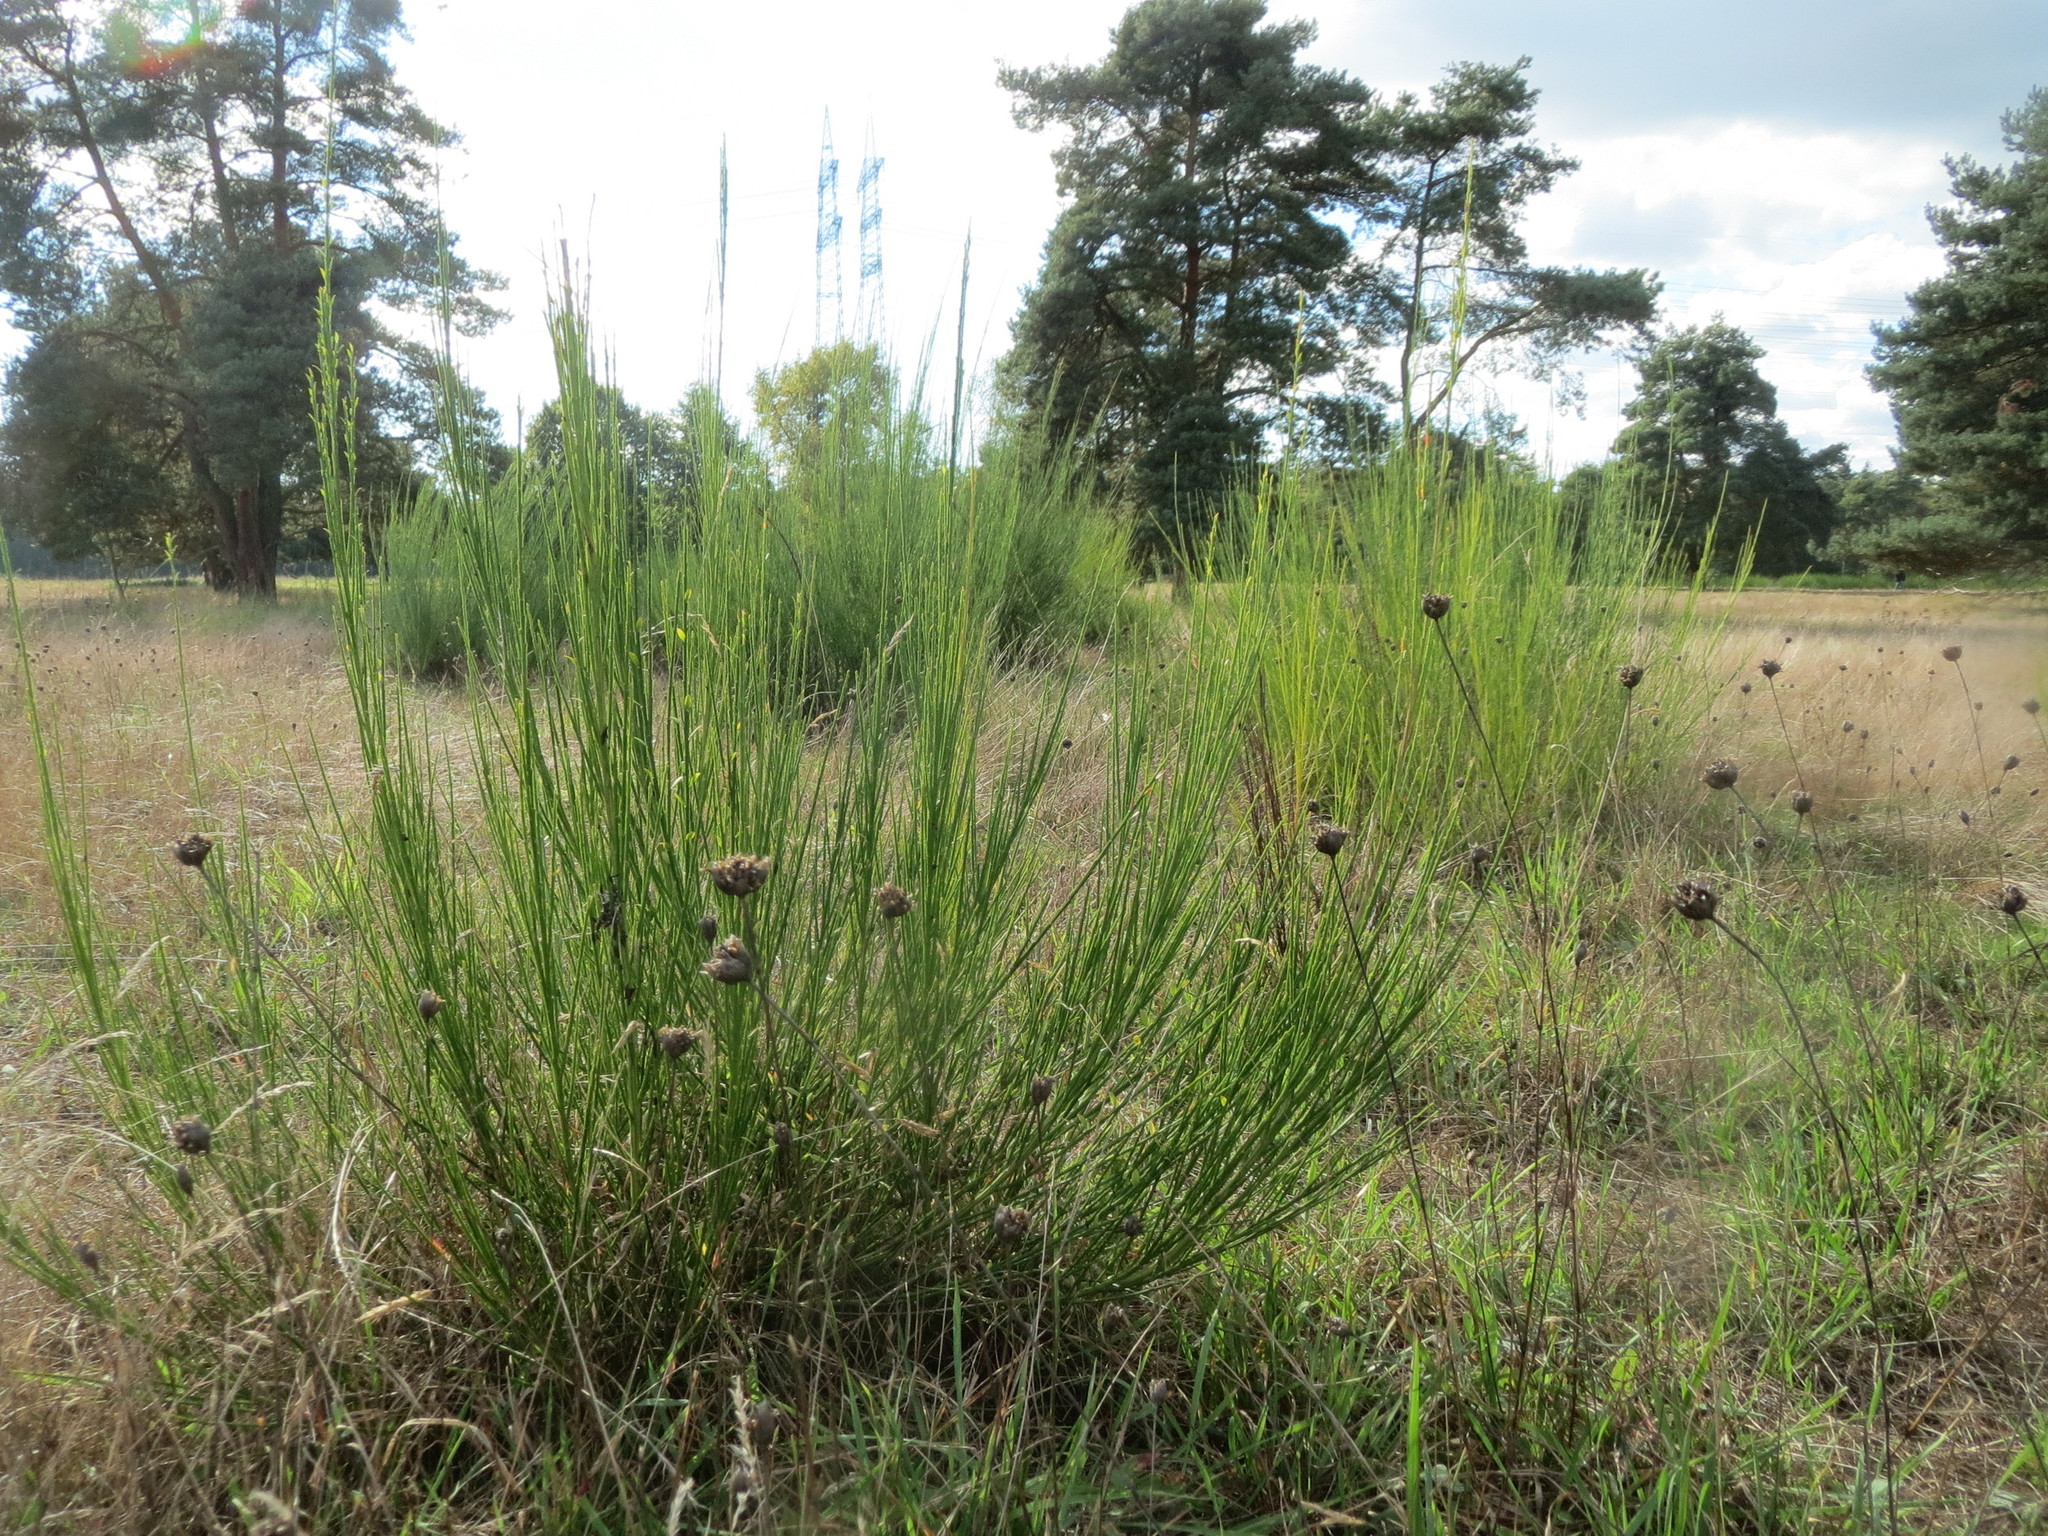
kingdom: Plantae
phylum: Tracheophyta
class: Magnoliopsida
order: Caryophyllales
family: Caryophyllaceae
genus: Petrorhagia
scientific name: Petrorhagia prolifera
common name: Proliferous pink
